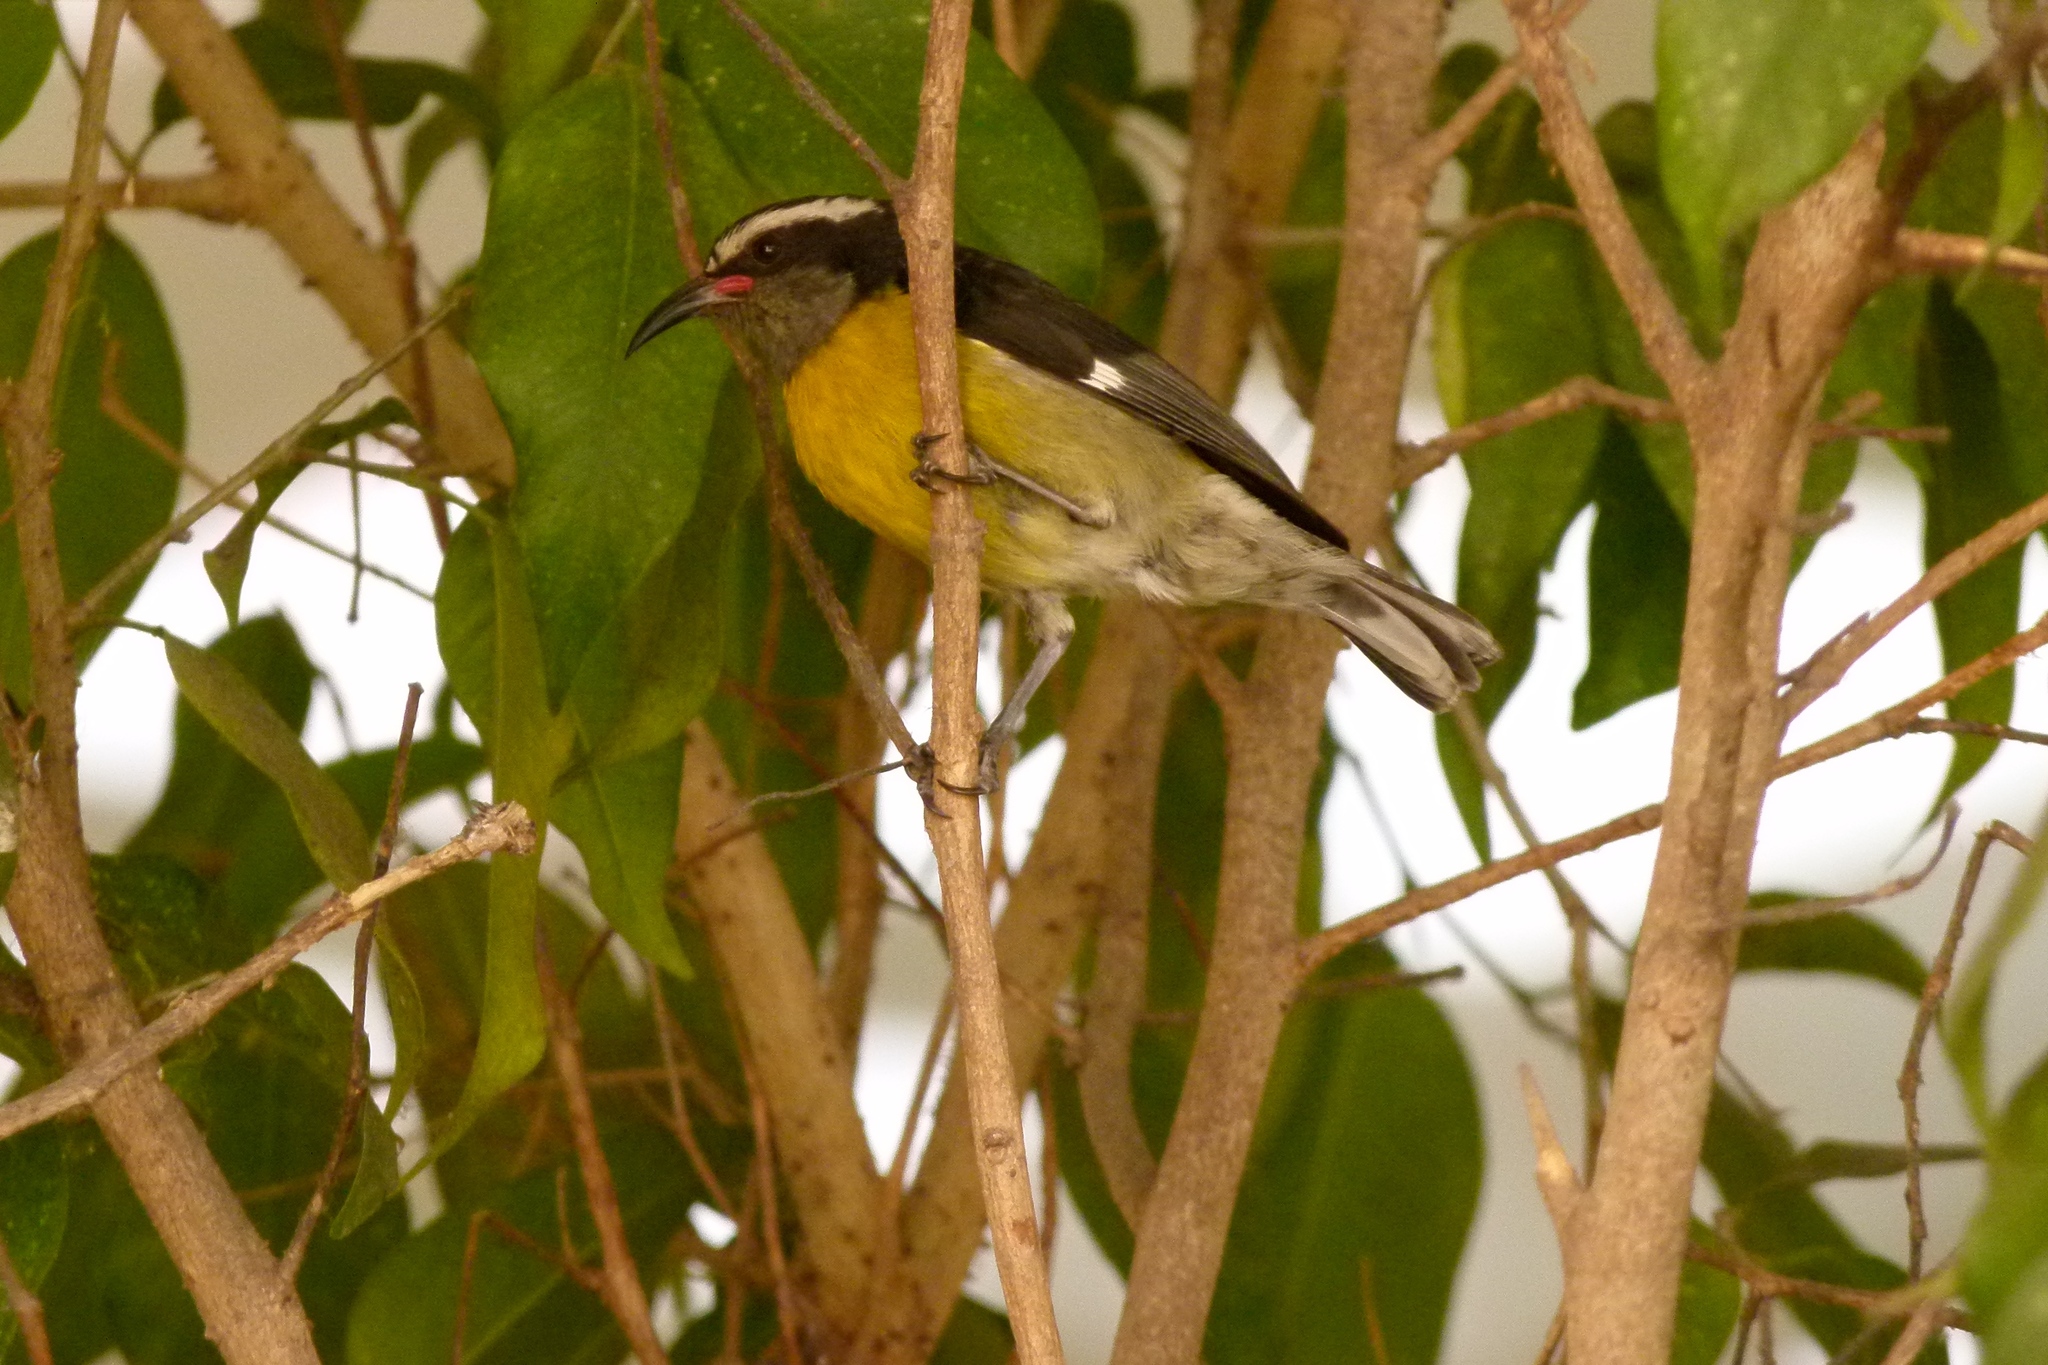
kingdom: Animalia
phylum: Chordata
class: Aves
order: Passeriformes
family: Thraupidae
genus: Coereba
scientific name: Coereba flaveola
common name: Bananaquit
